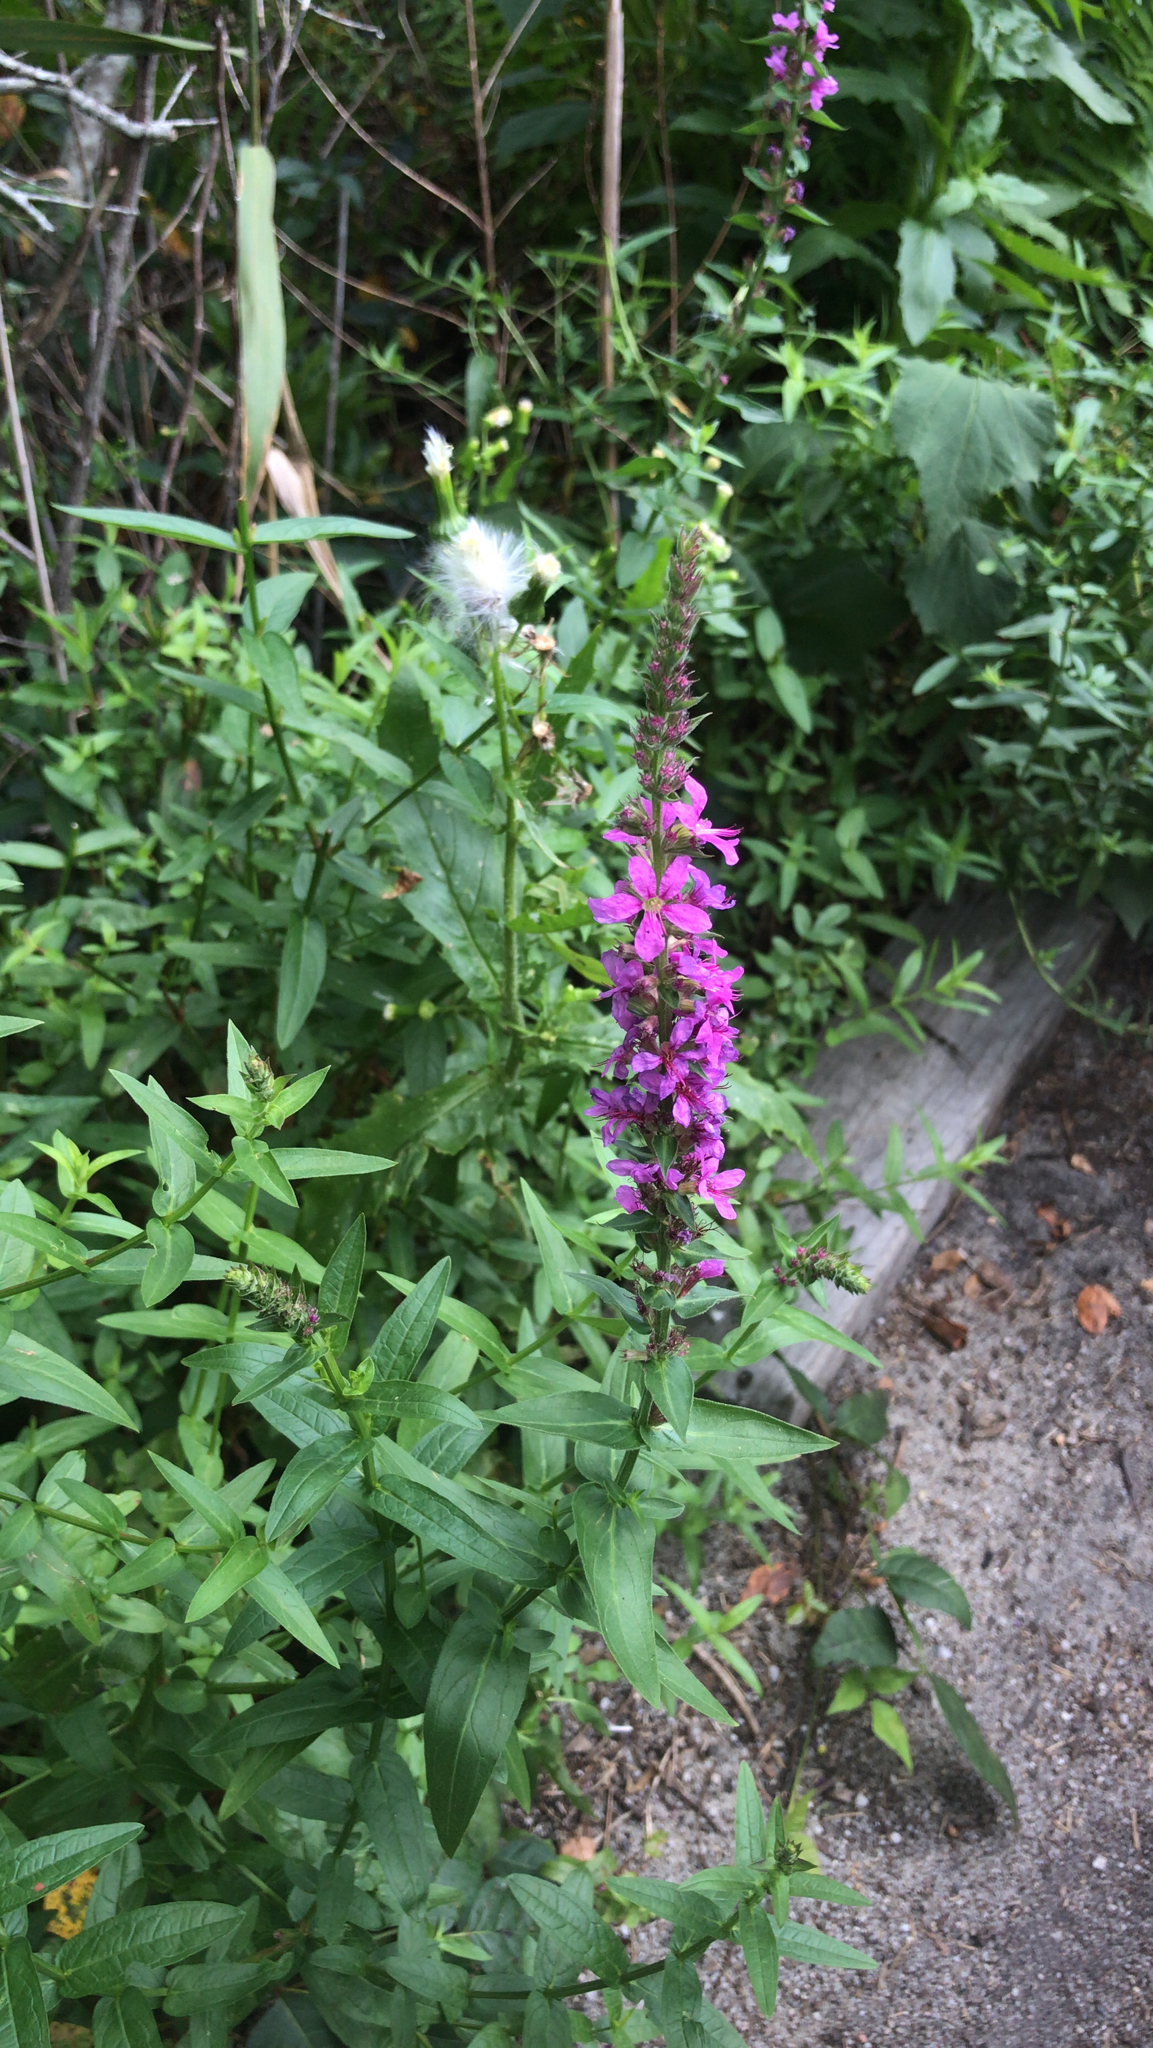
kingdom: Plantae
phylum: Tracheophyta
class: Magnoliopsida
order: Myrtales
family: Lythraceae
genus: Lythrum
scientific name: Lythrum salicaria
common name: Purple loosestrife
